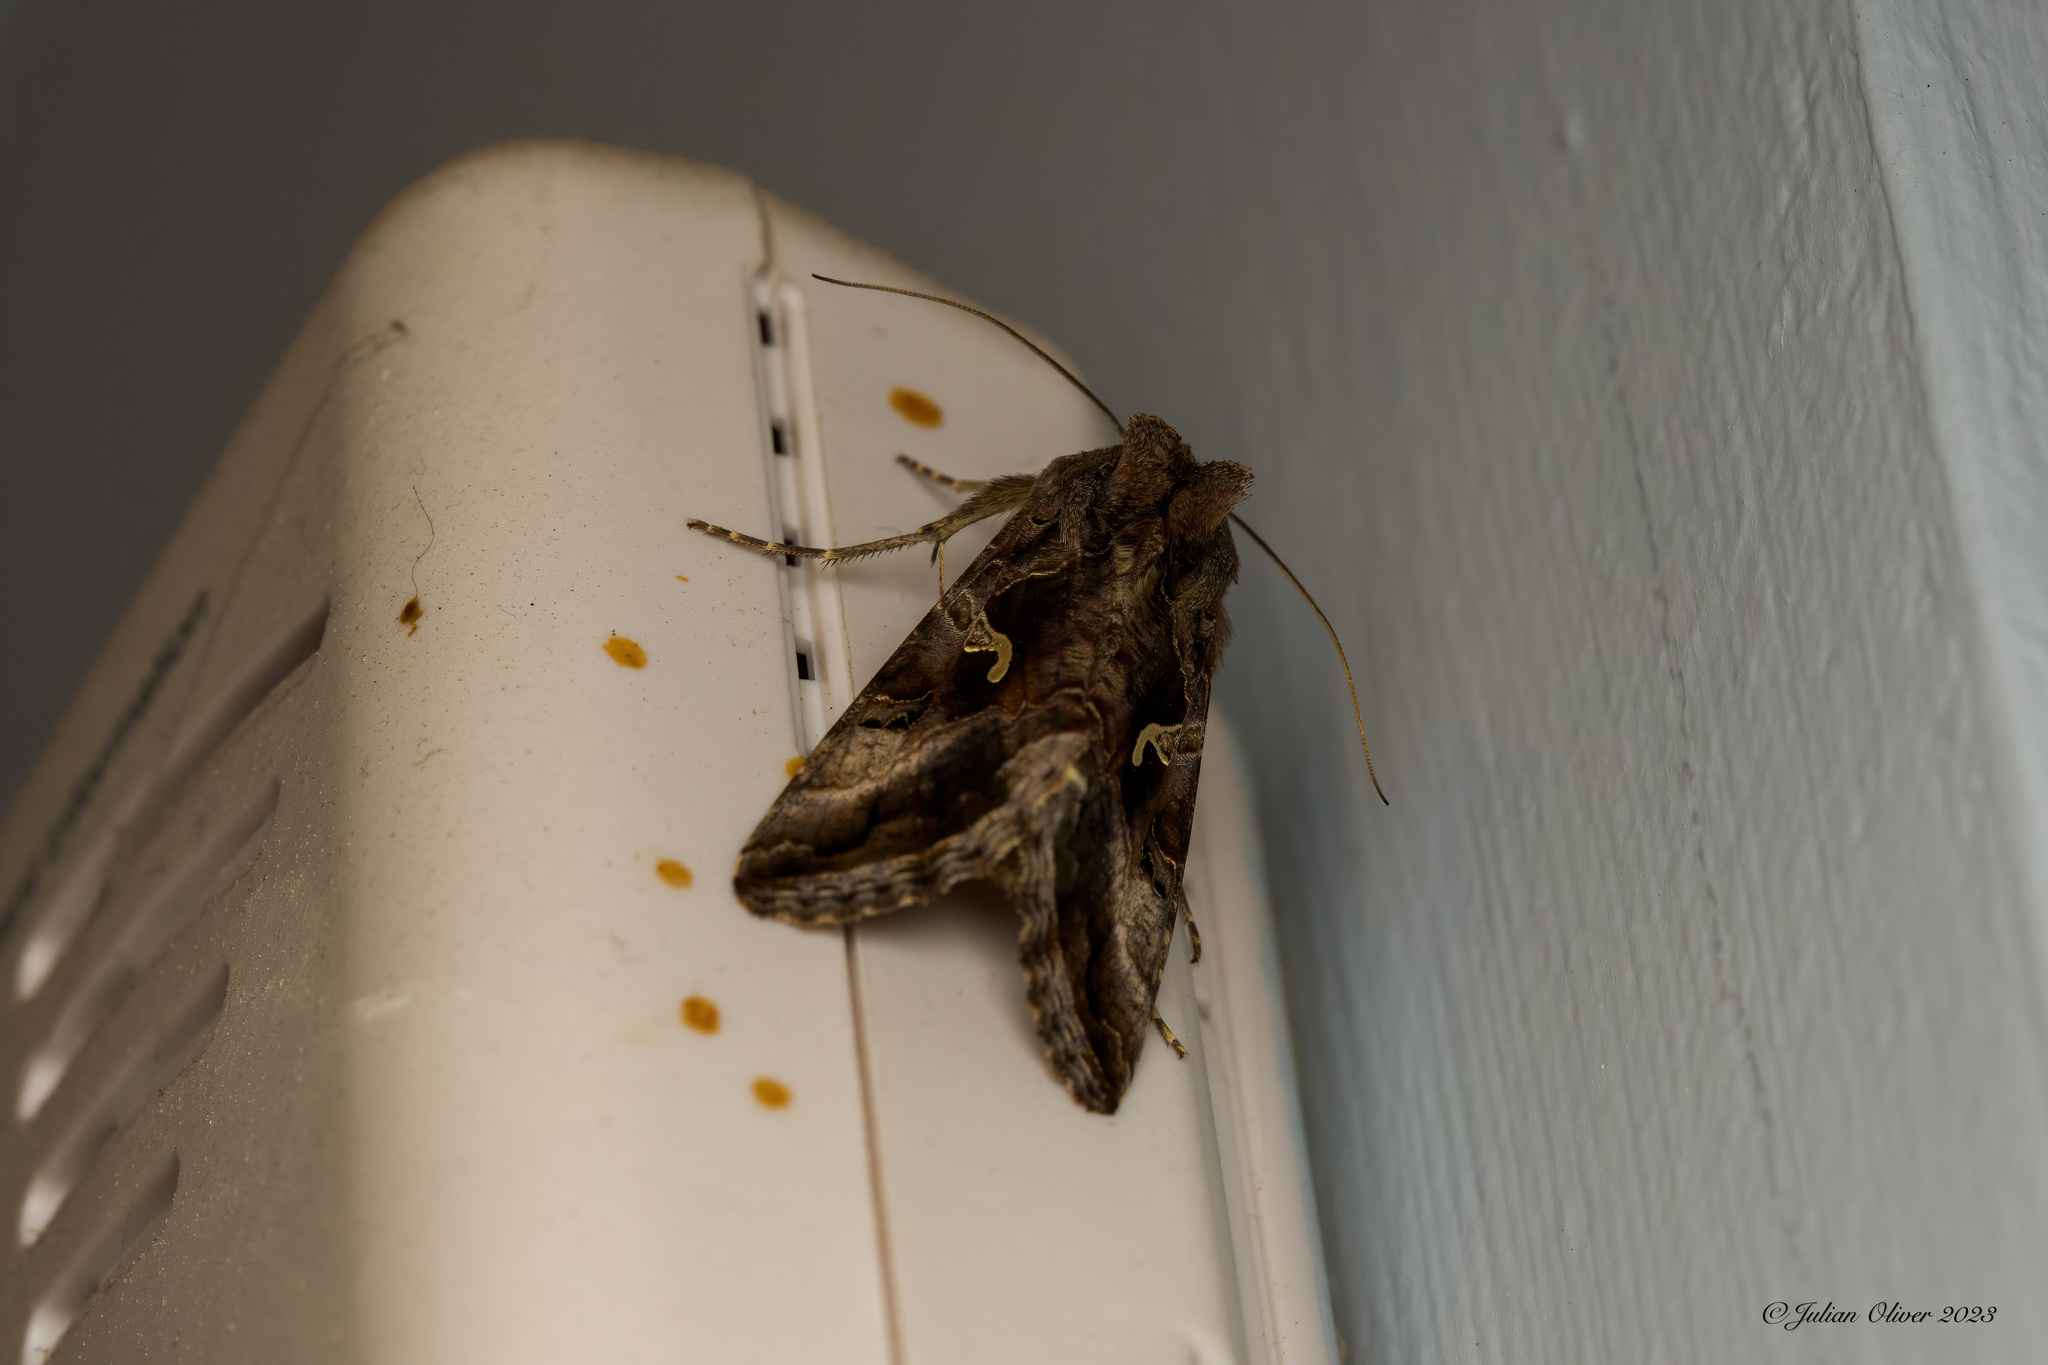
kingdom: Animalia
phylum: Arthropoda
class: Insecta
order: Lepidoptera
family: Noctuidae
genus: Autographa
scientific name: Autographa gamma
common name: Silver y
